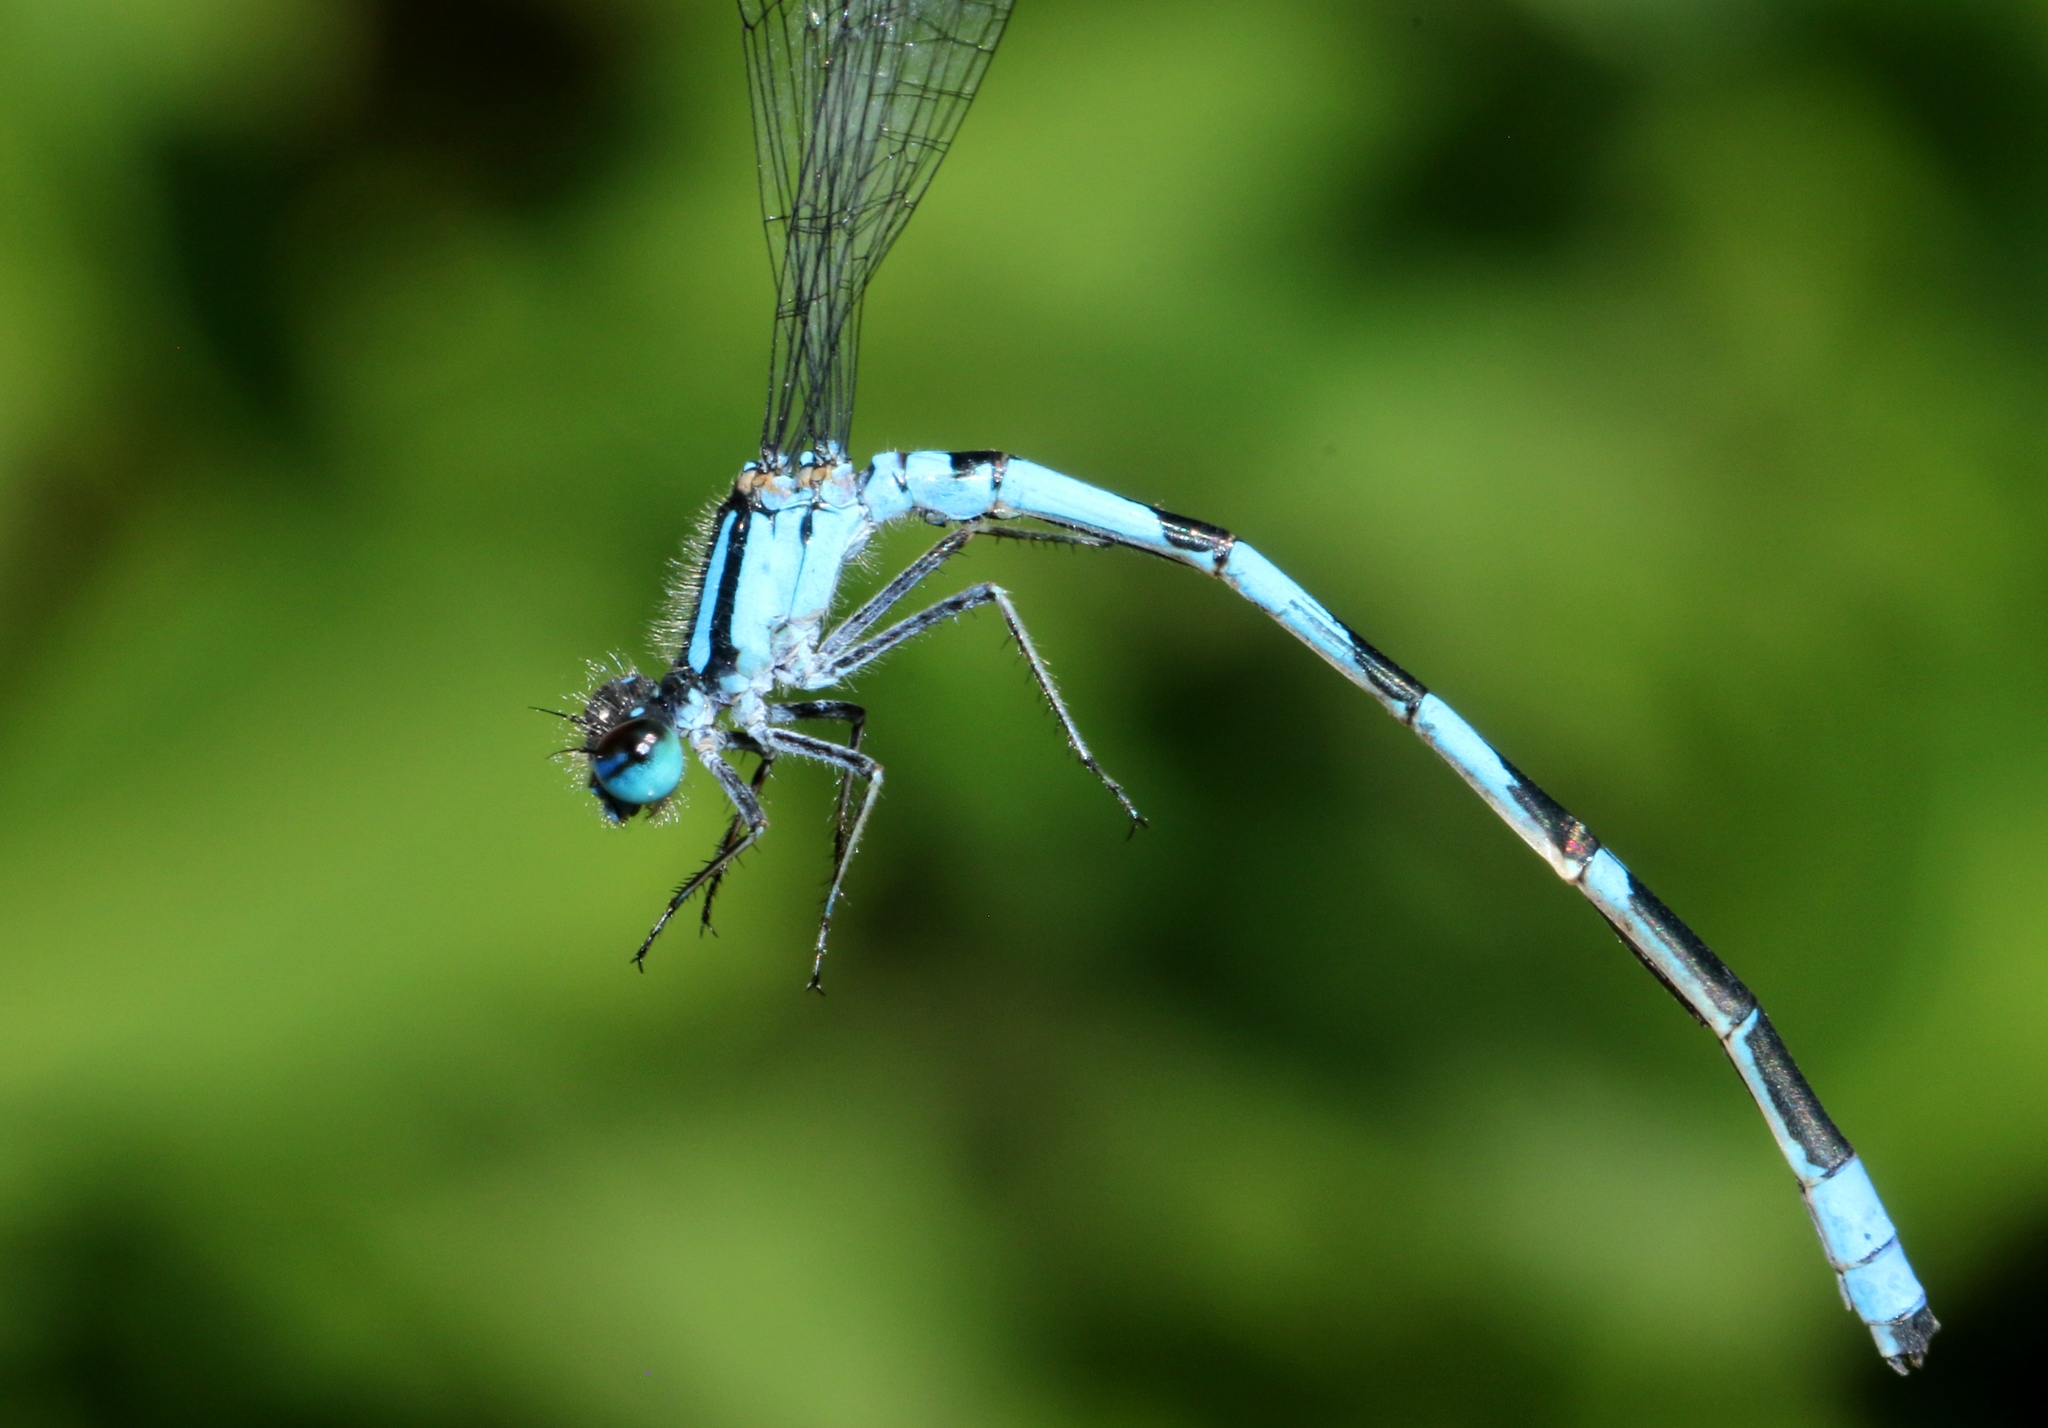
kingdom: Animalia
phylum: Arthropoda
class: Insecta
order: Odonata
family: Coenagrionidae
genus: Enallagma
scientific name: Enallagma hageni
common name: Hagen's bluet
